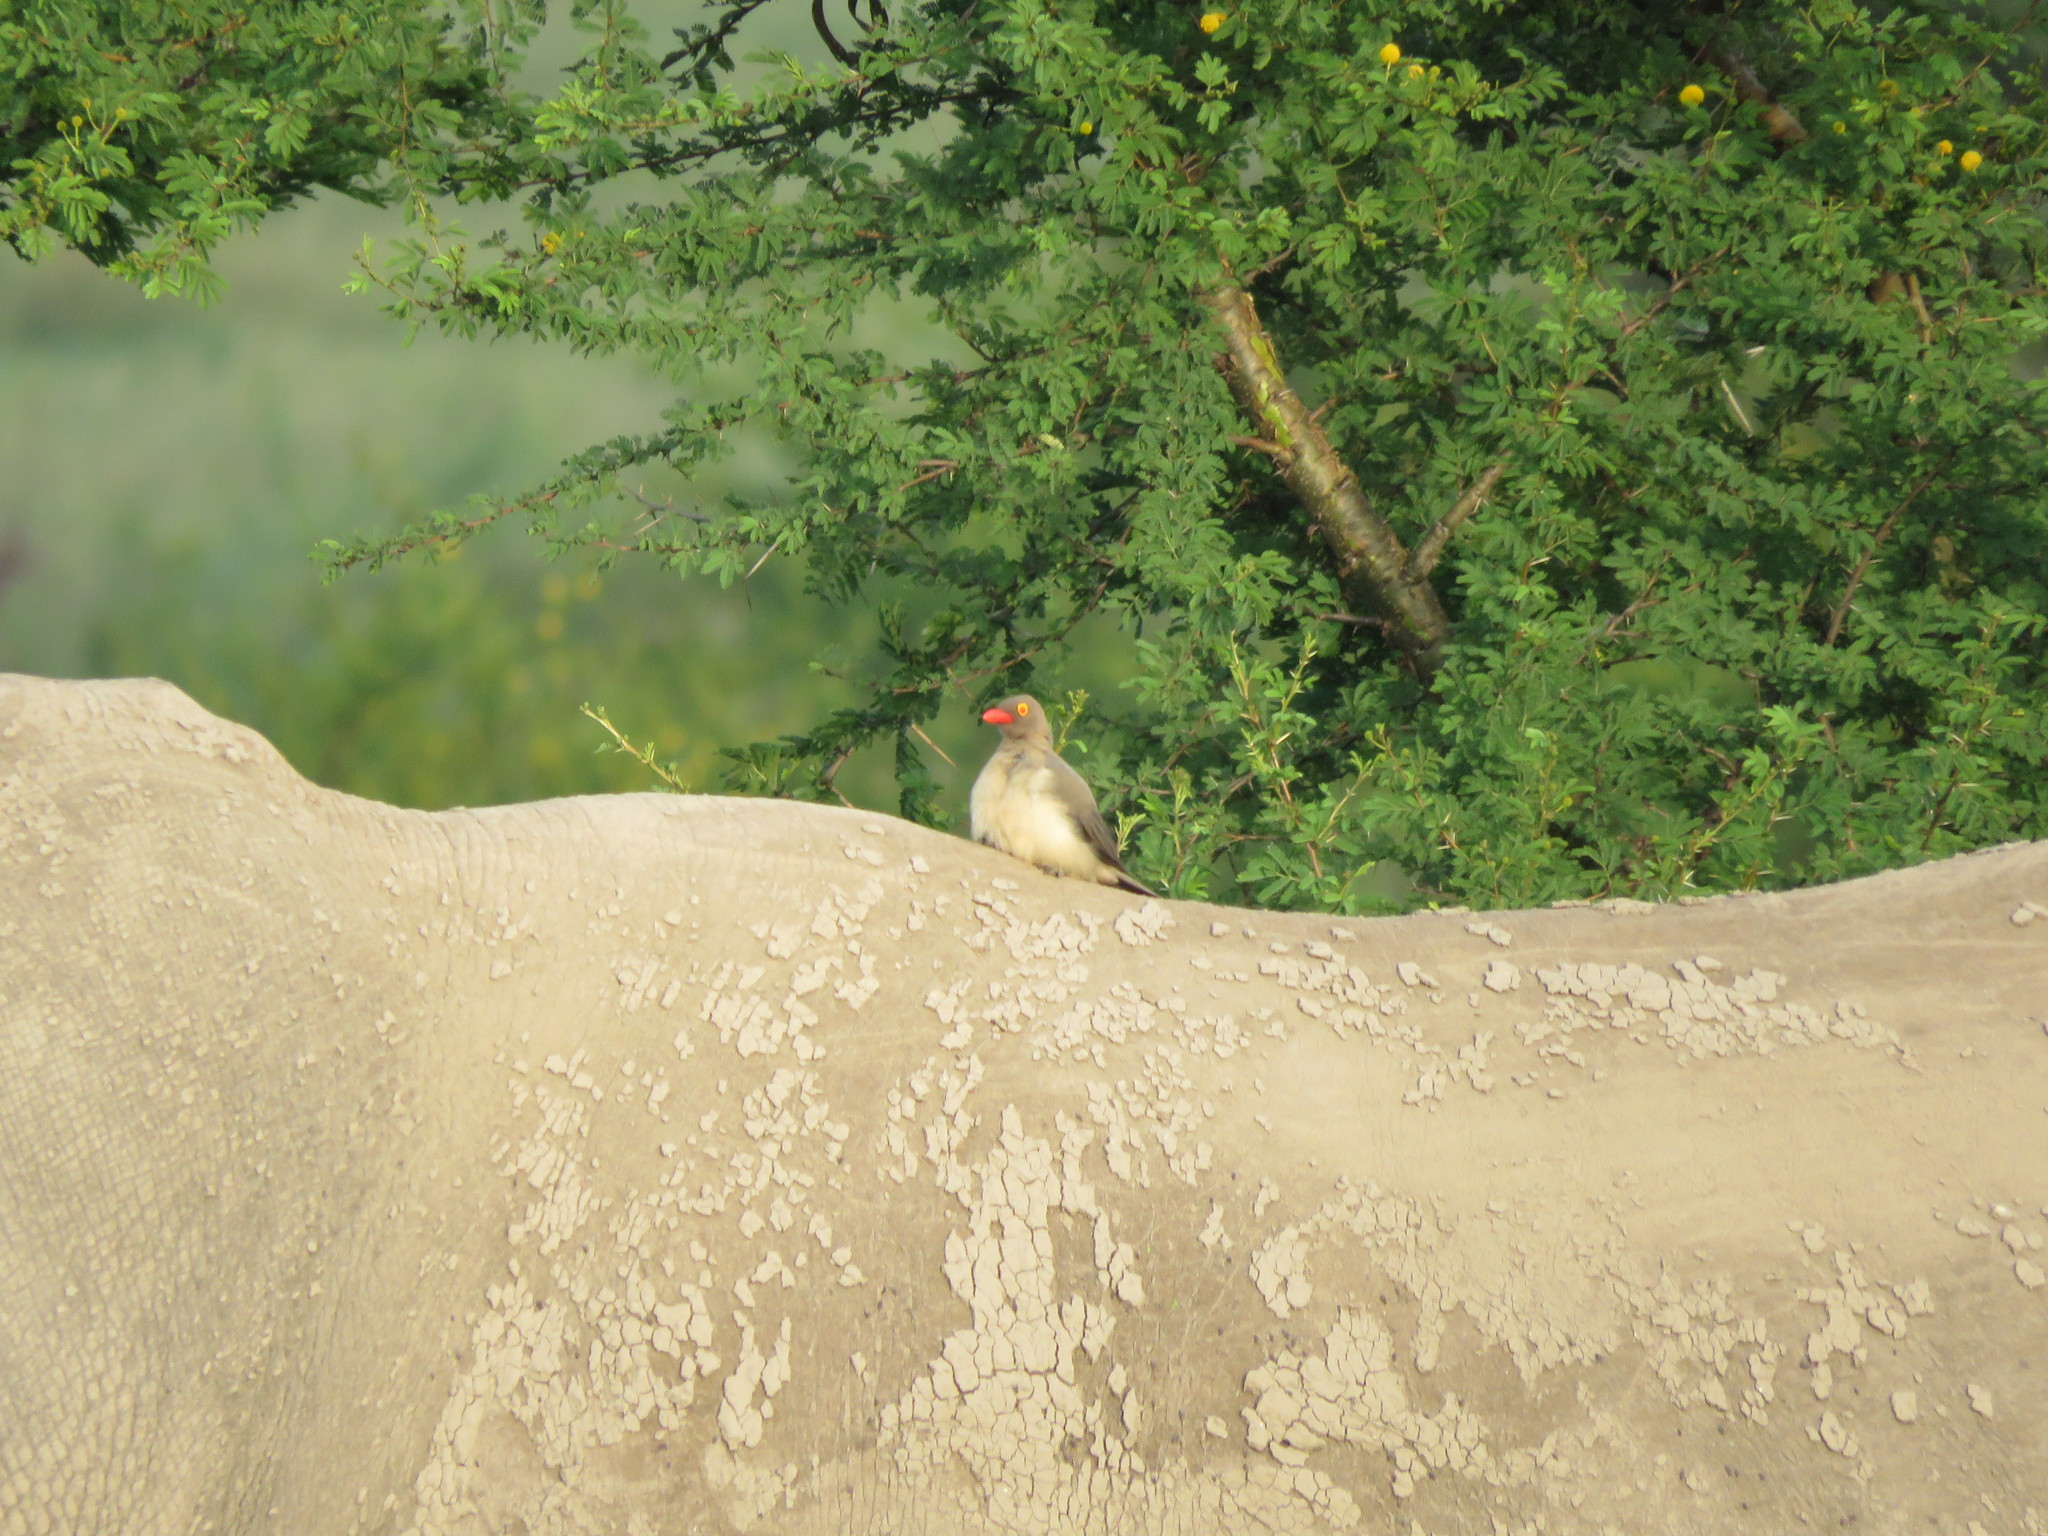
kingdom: Animalia
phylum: Chordata
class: Aves
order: Passeriformes
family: Buphagidae
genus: Buphagus
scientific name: Buphagus erythrorhynchus
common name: Red-billed oxpecker
